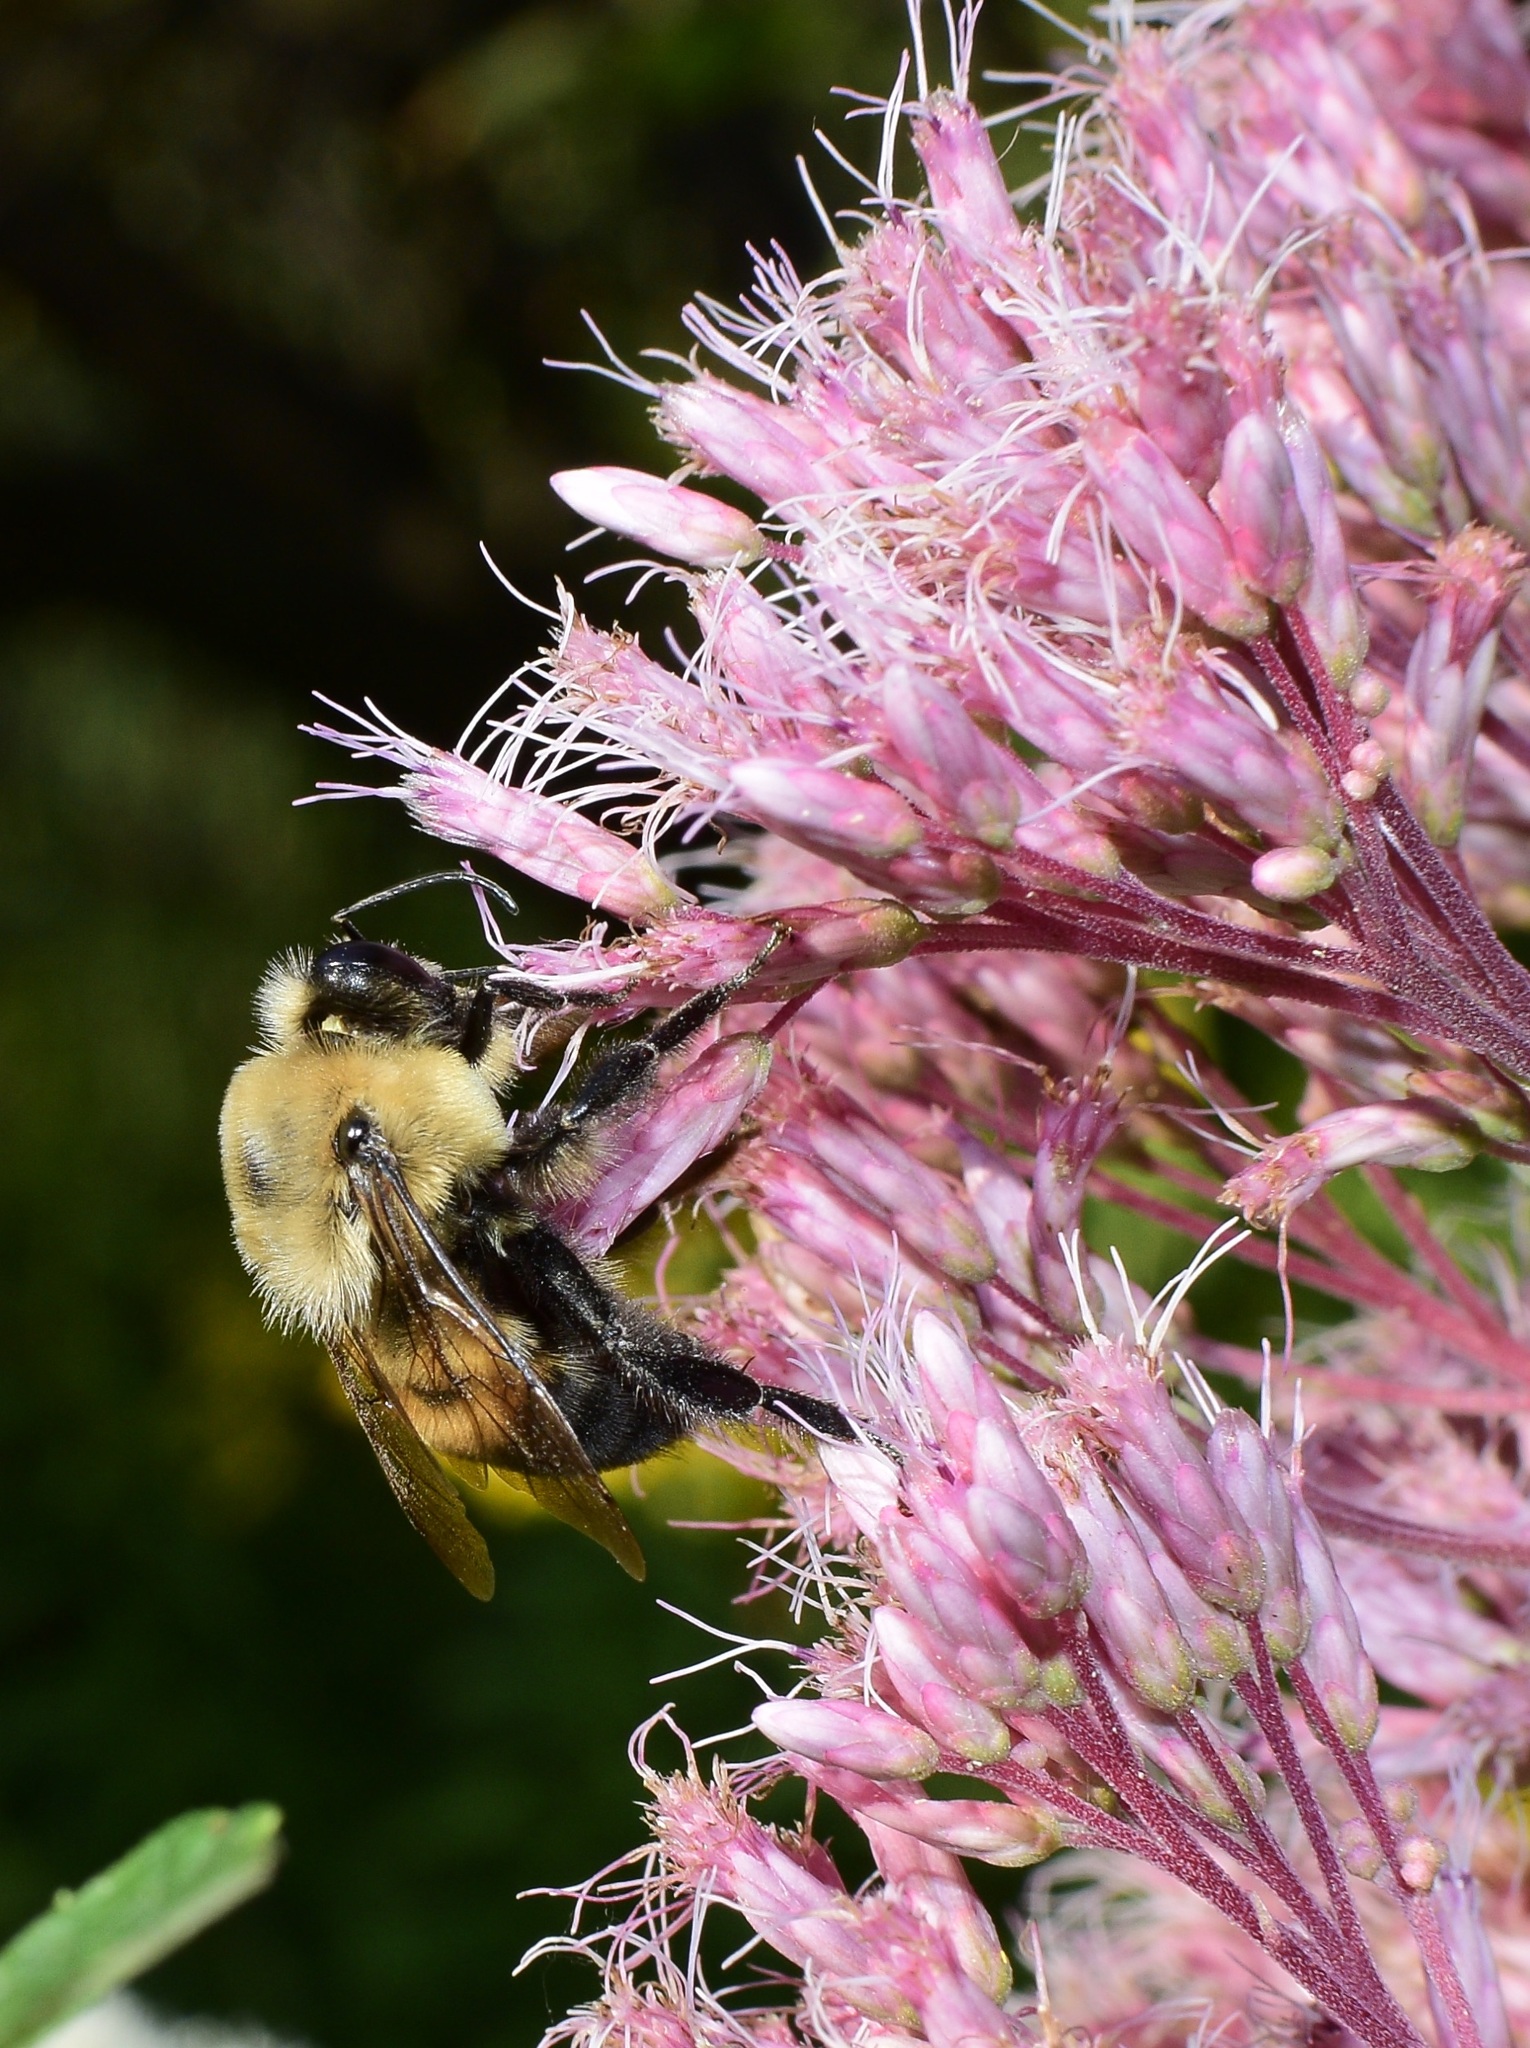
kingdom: Animalia
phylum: Arthropoda
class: Insecta
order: Hymenoptera
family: Apidae
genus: Bombus
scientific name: Bombus griseocollis
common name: Brown-belted bumble bee
